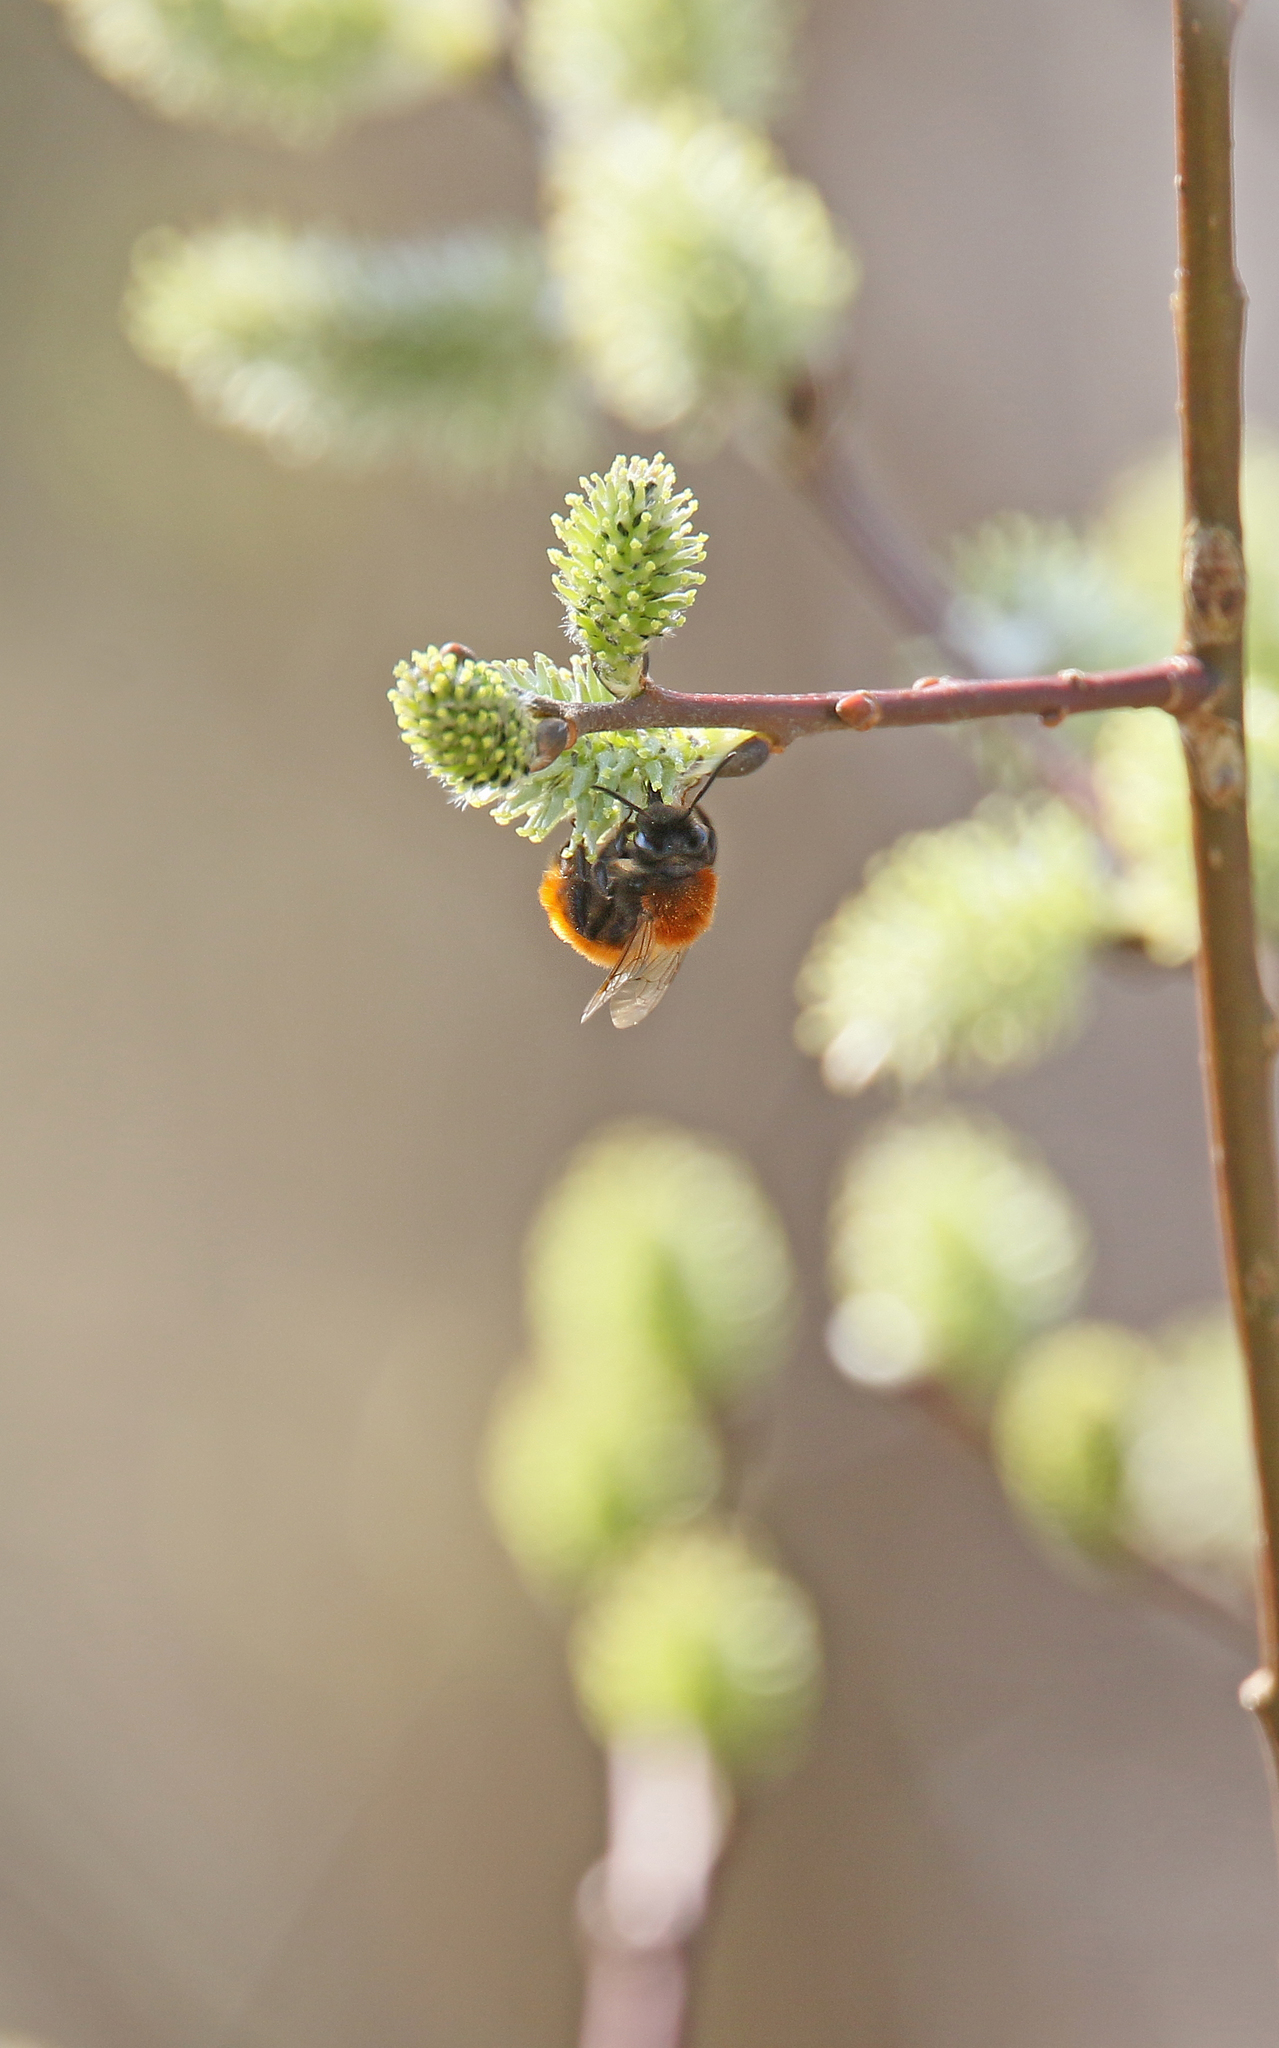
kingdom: Animalia
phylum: Arthropoda
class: Insecta
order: Hymenoptera
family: Andrenidae
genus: Andrena
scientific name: Andrena fulva
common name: Tawny mining bee
